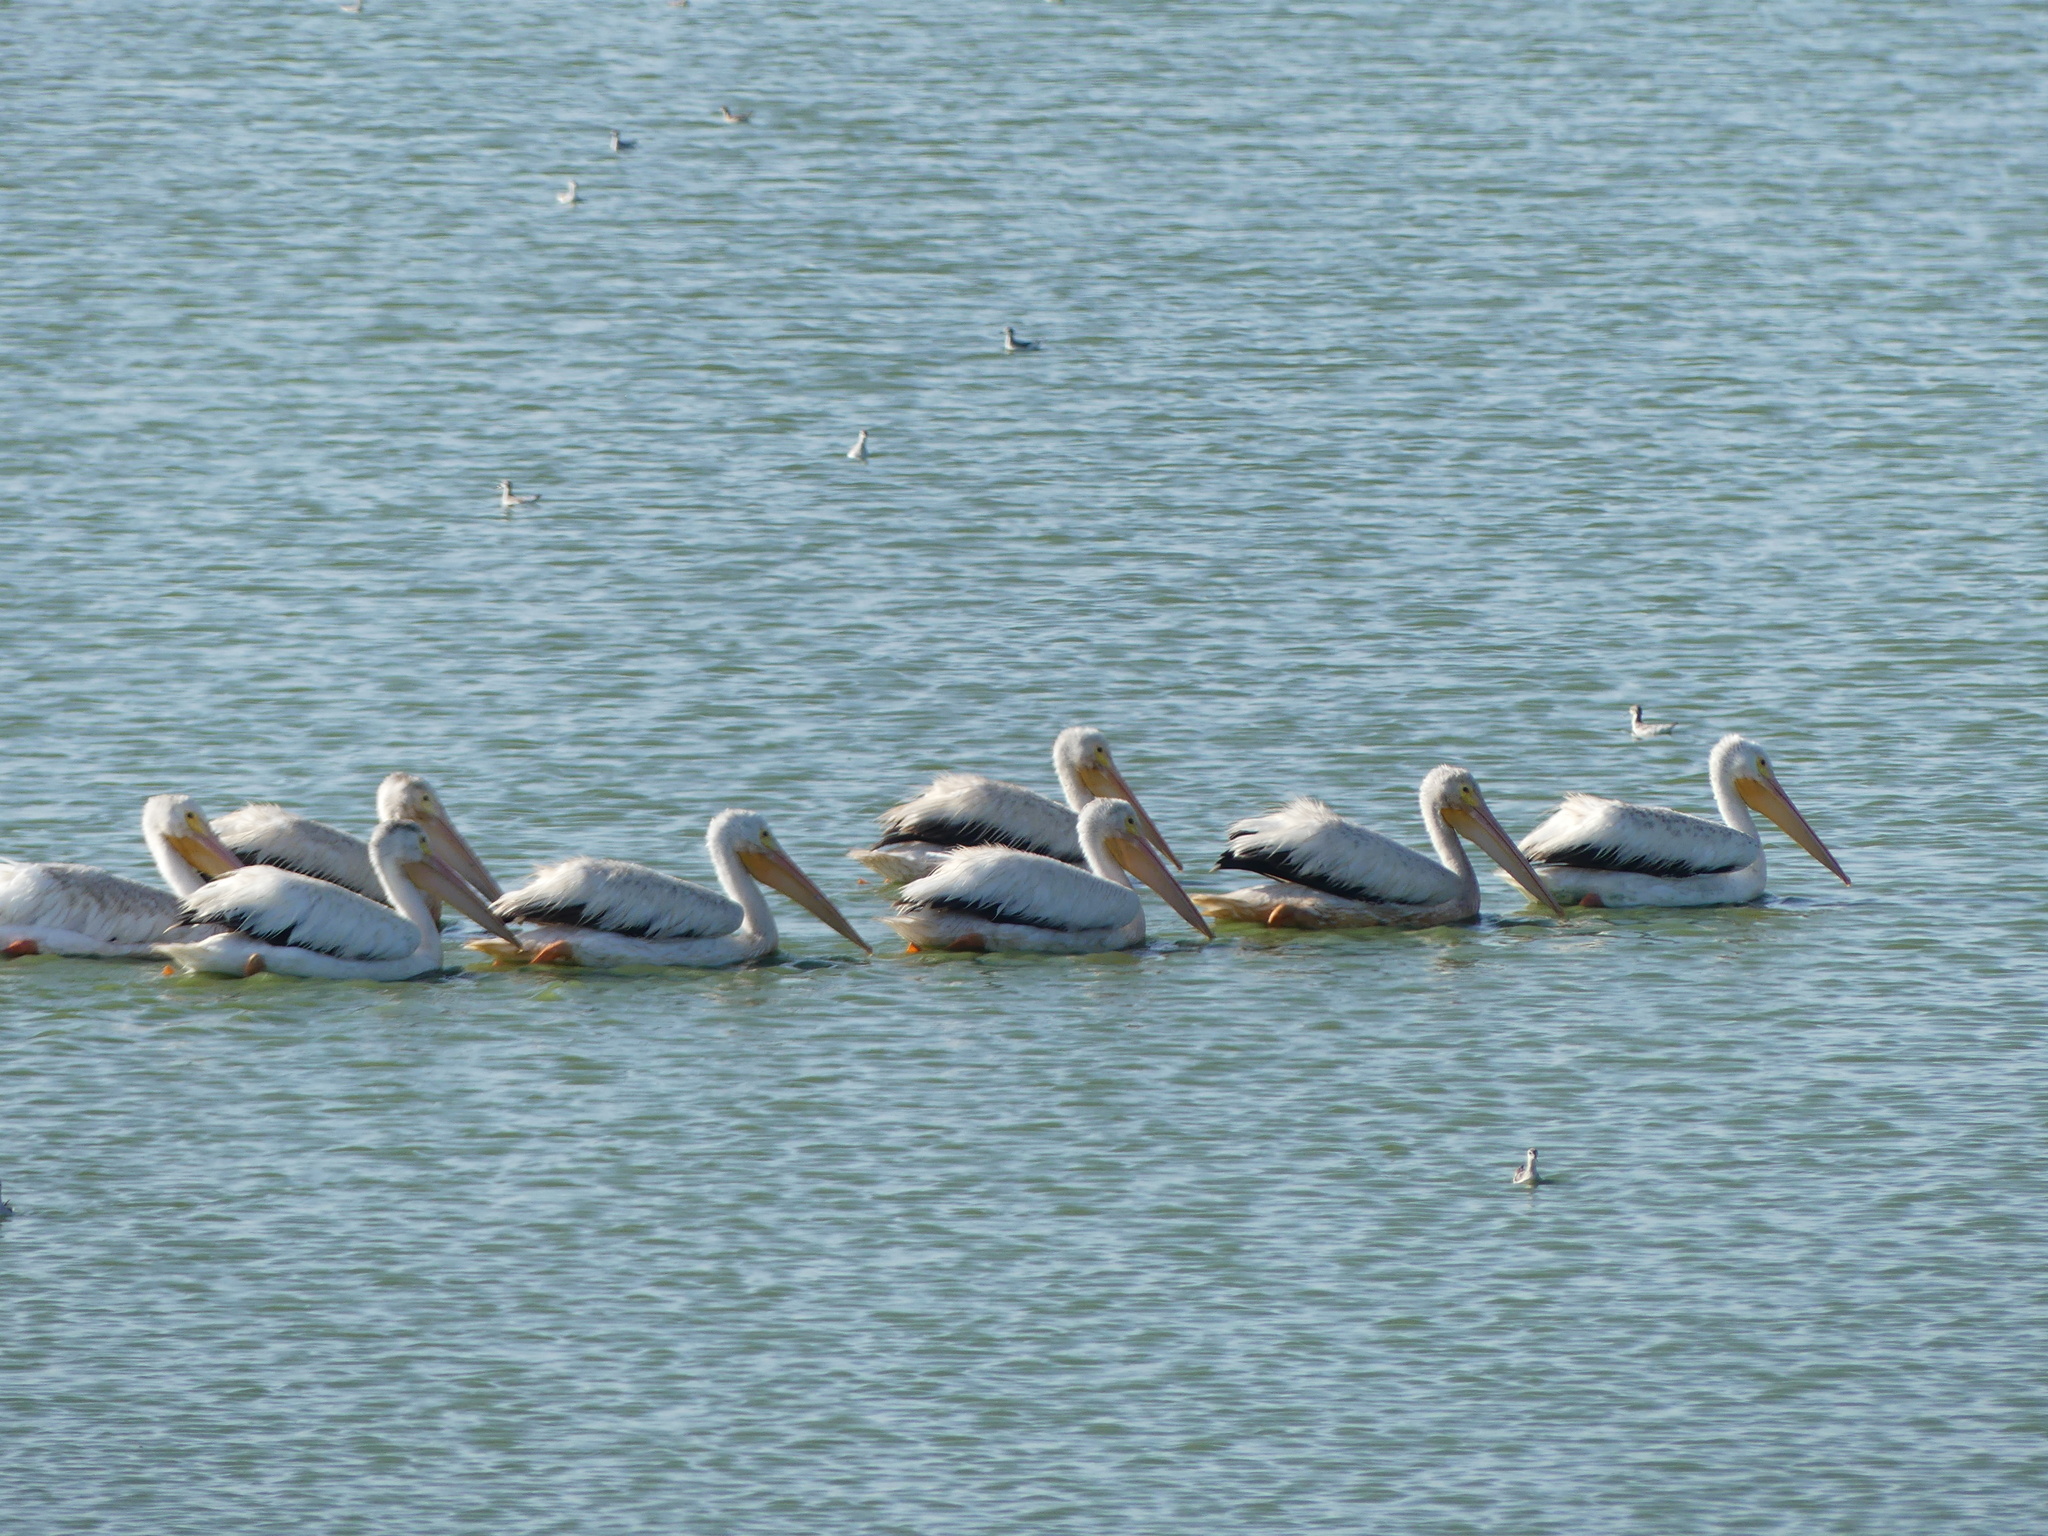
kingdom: Animalia
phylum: Chordata
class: Aves
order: Pelecaniformes
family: Pelecanidae
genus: Pelecanus
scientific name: Pelecanus erythrorhynchos
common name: American white pelican
